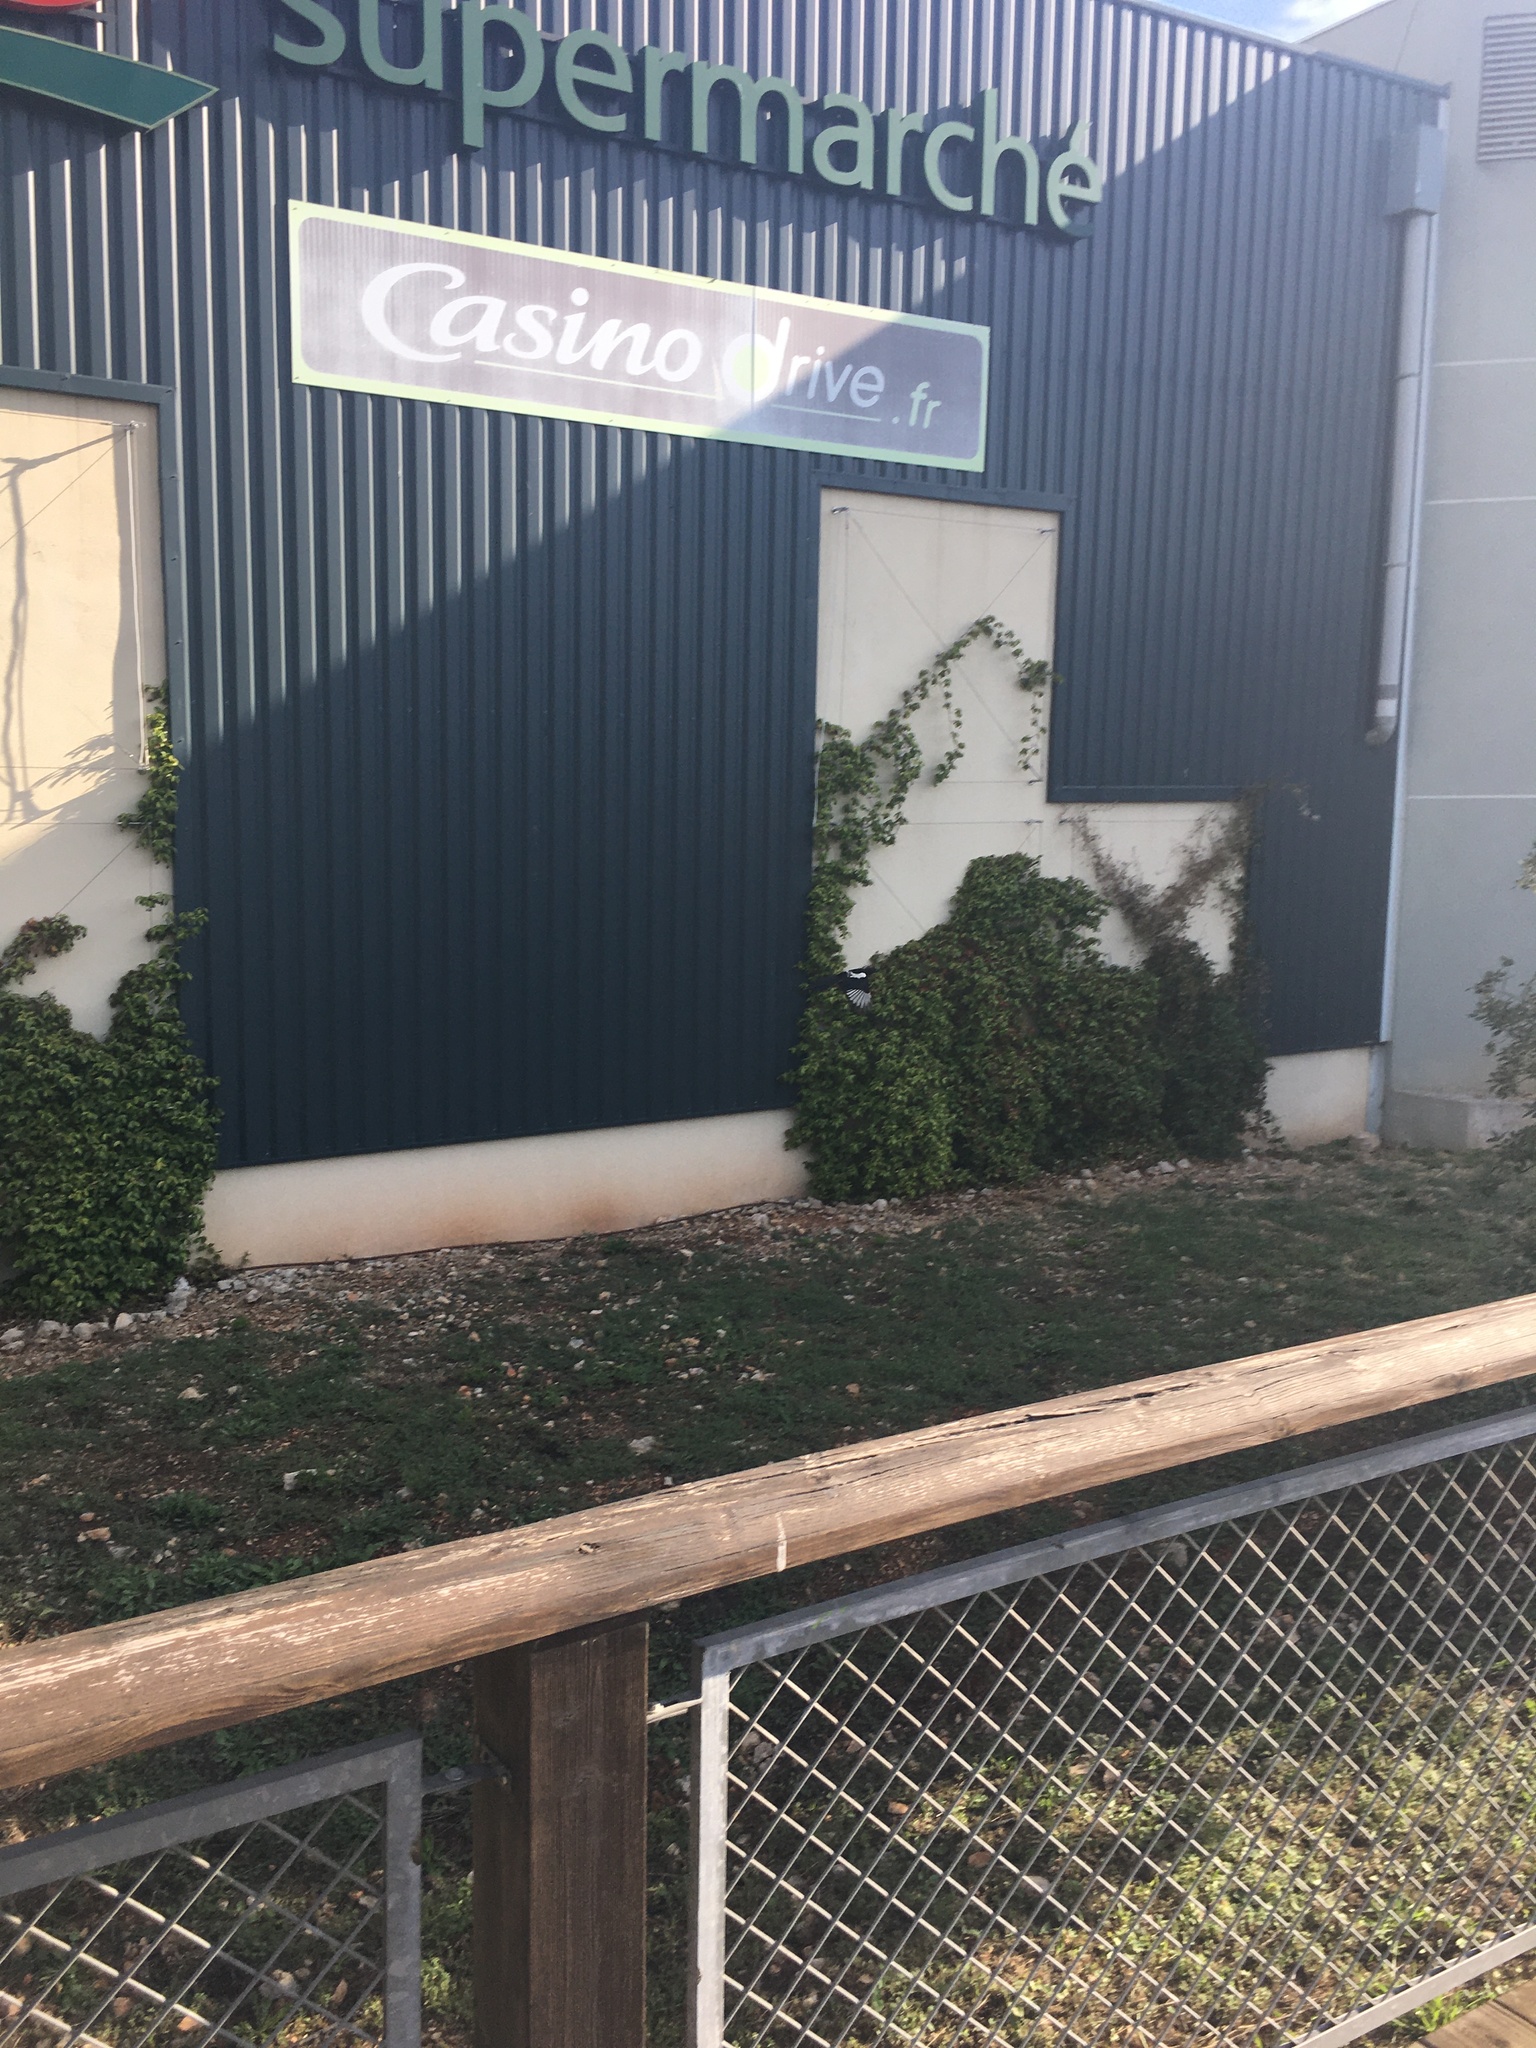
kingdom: Animalia
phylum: Chordata
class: Aves
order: Passeriformes
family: Corvidae
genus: Pica
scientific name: Pica pica
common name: Eurasian magpie
